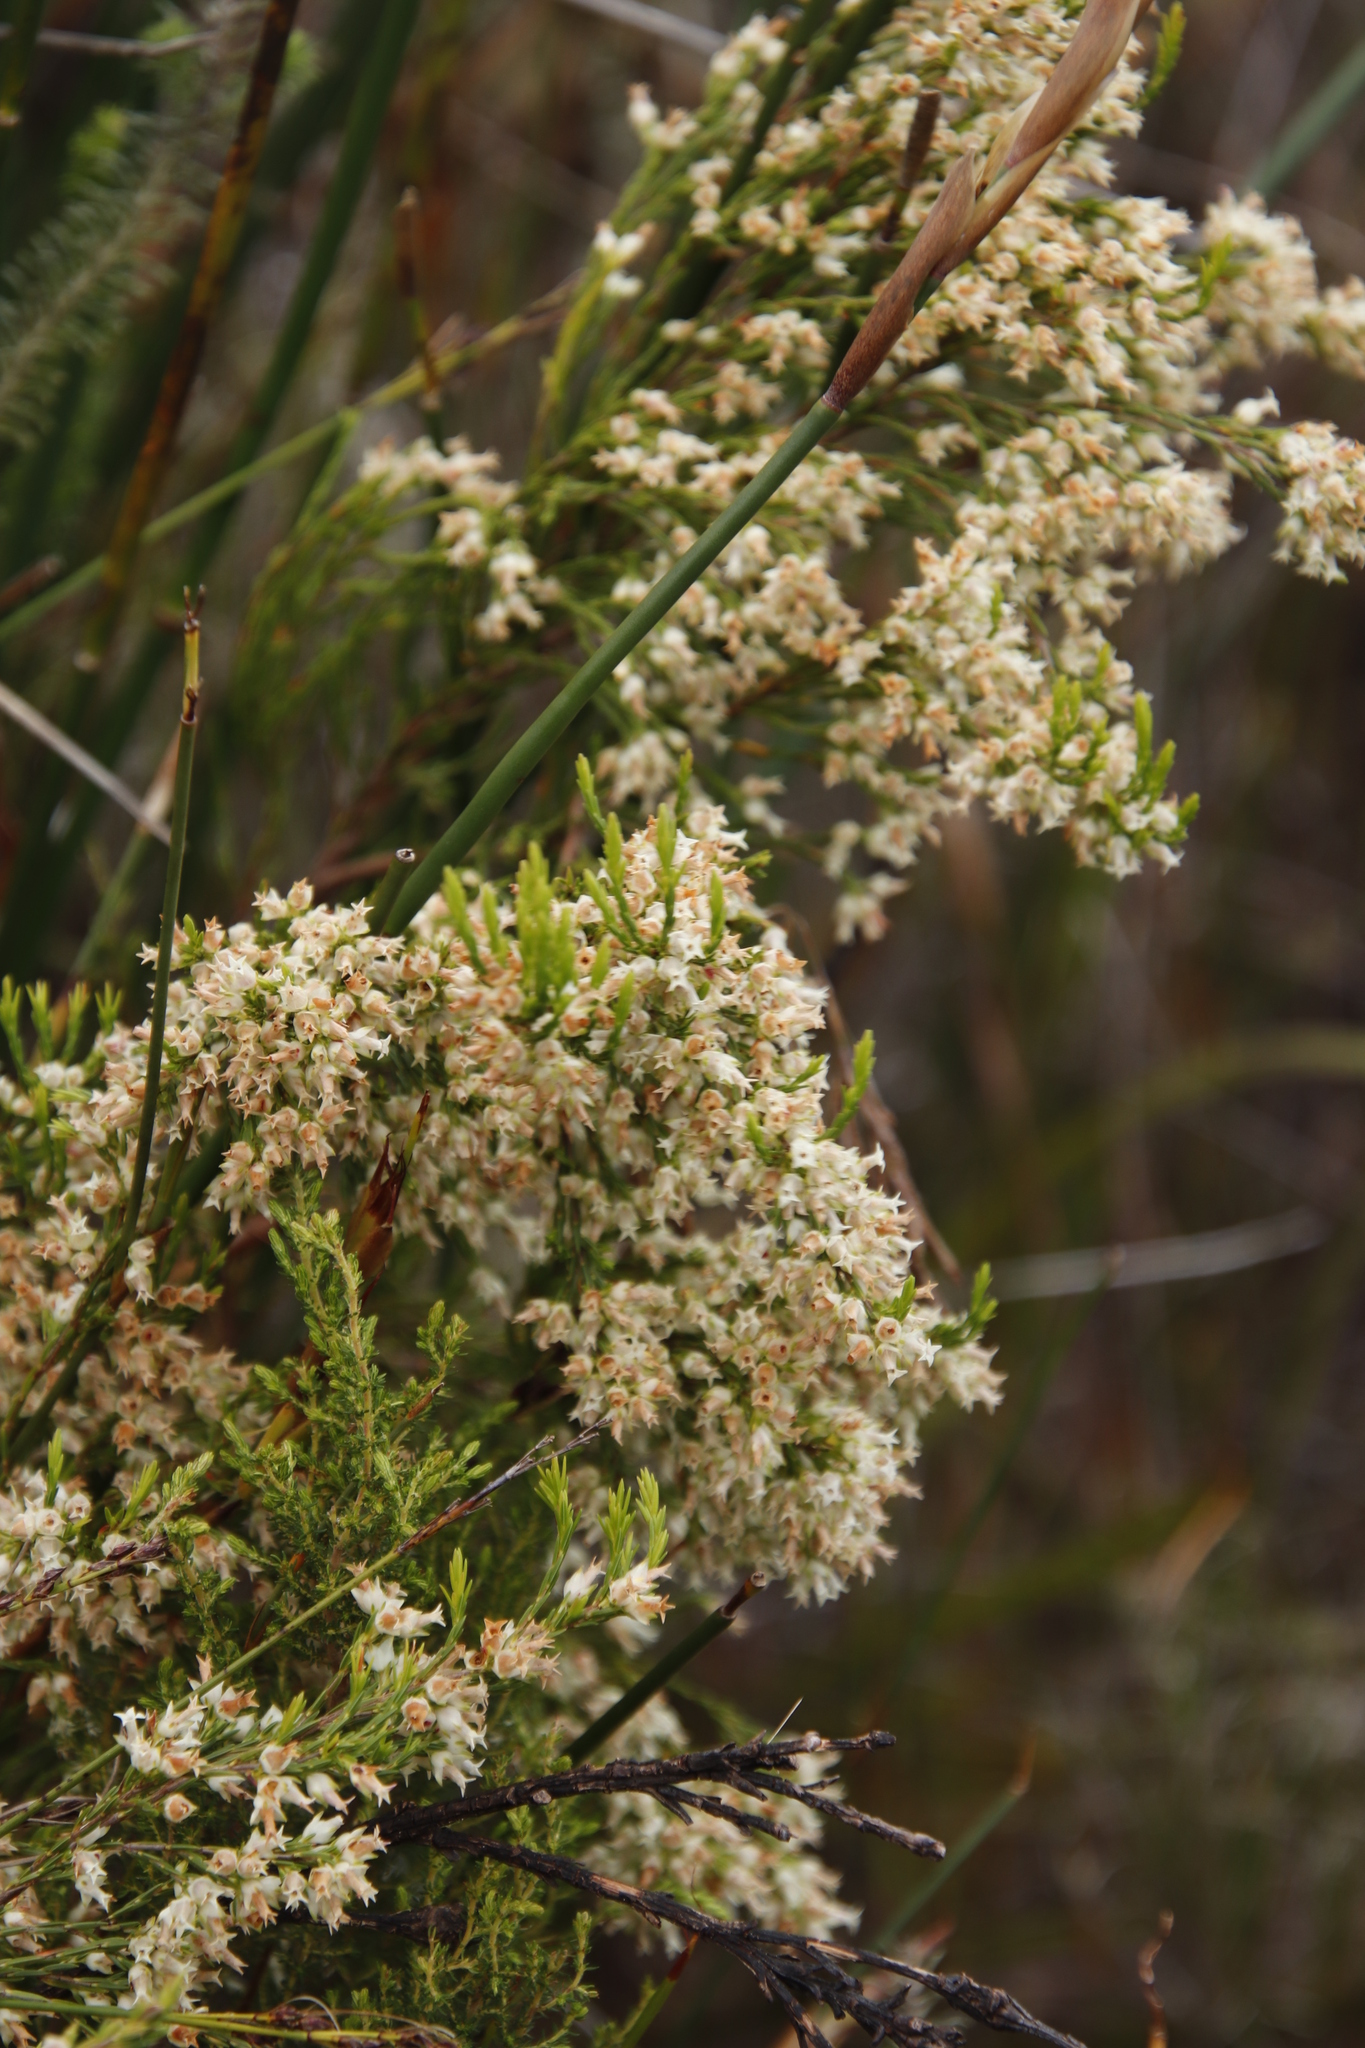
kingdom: Plantae
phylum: Tracheophyta
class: Magnoliopsida
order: Ericales
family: Ericaceae
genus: Erica
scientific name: Erica lutea
